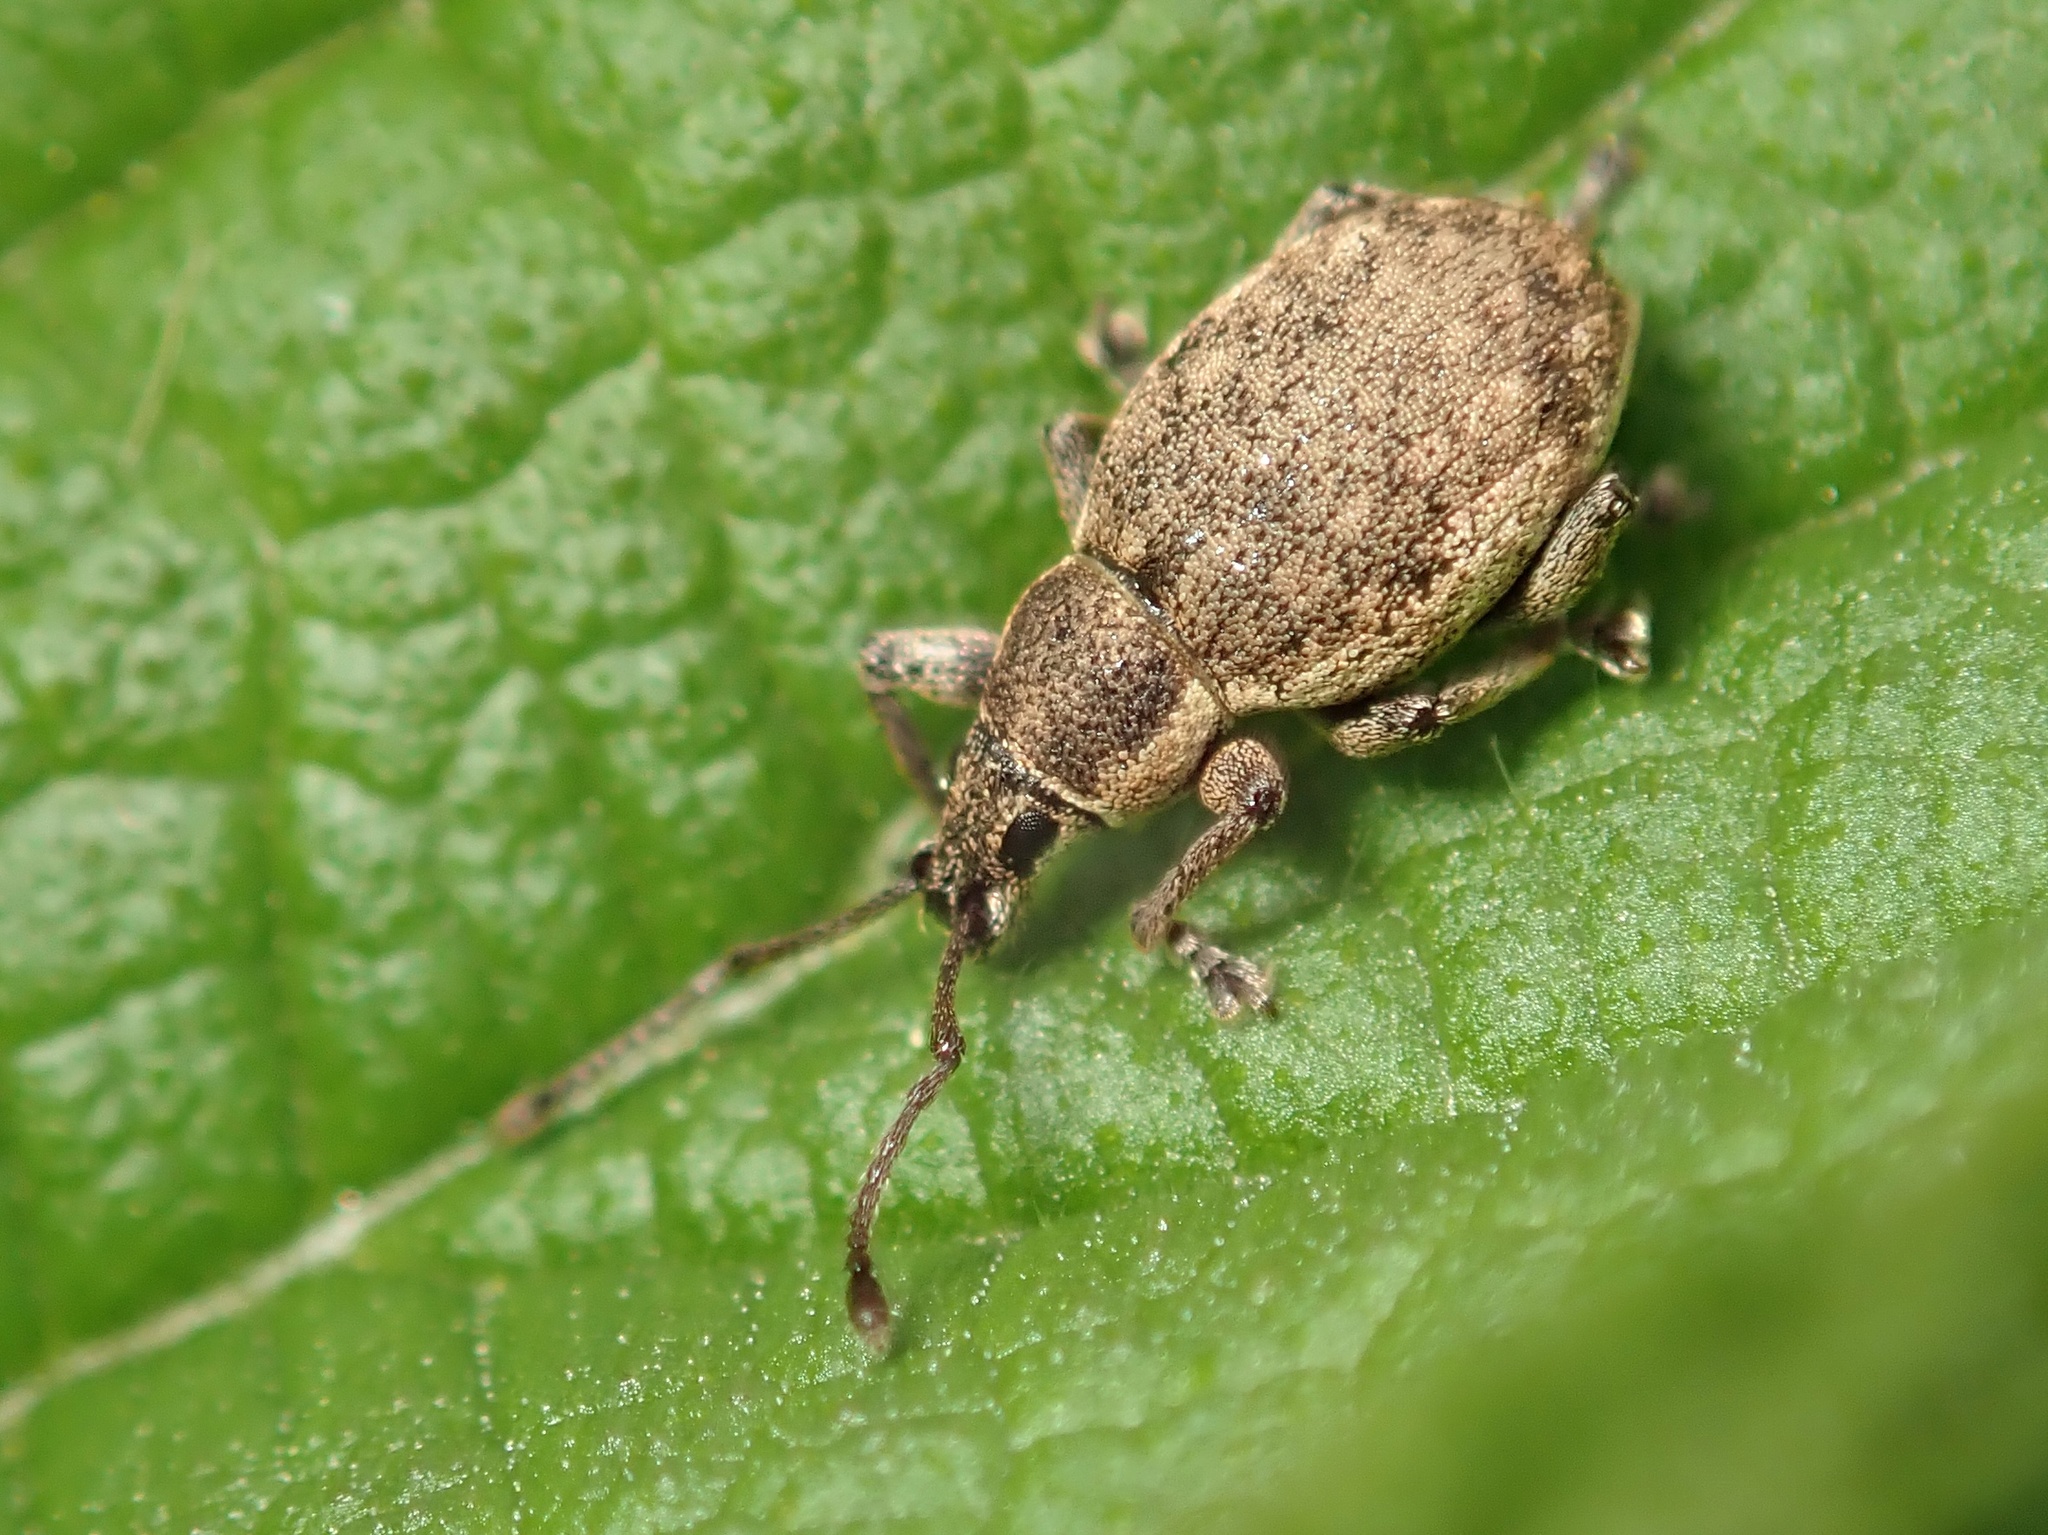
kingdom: Animalia
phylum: Arthropoda
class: Insecta
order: Coleoptera
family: Curculionidae
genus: Peritelus
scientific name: Peritelus sphaeroides
